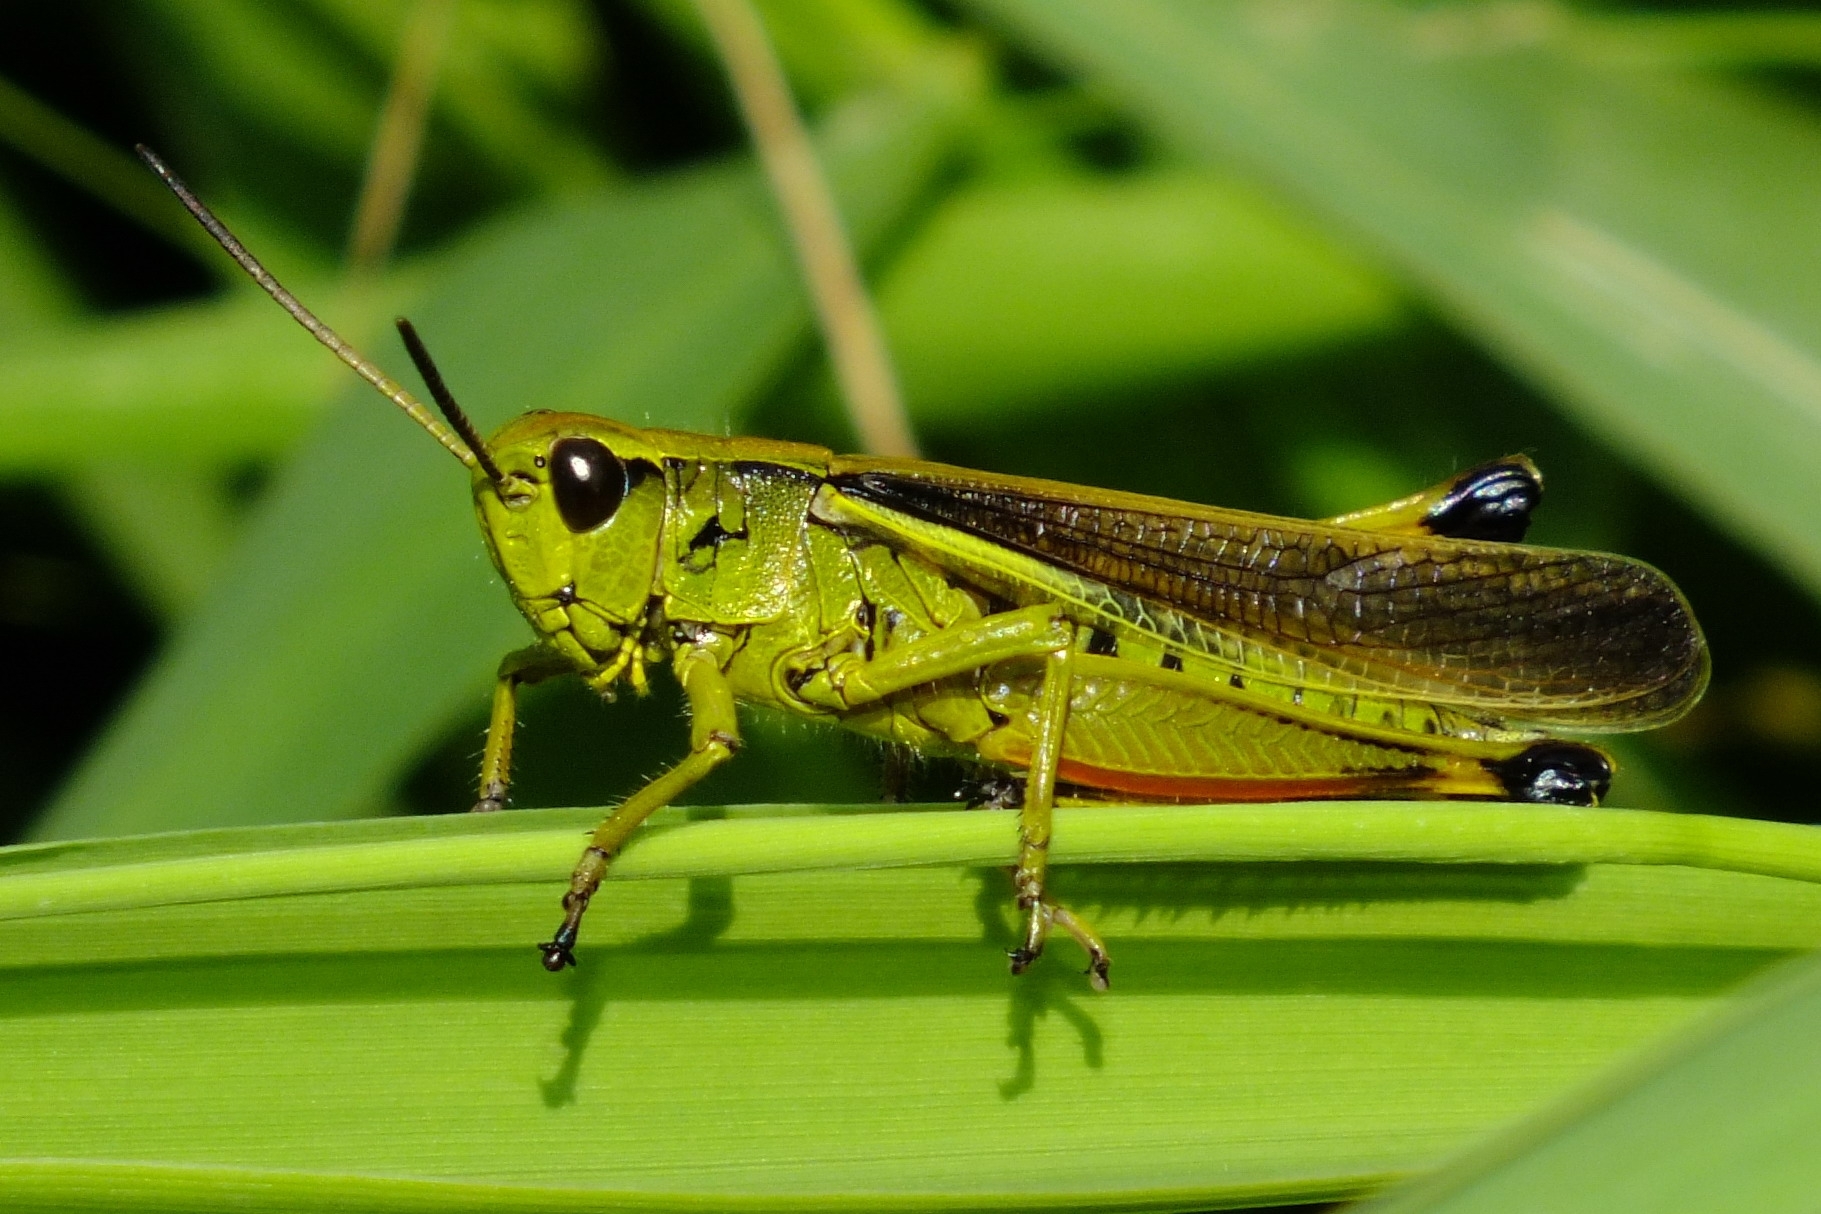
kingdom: Animalia
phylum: Arthropoda
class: Insecta
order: Orthoptera
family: Acrididae
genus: Stethophyma
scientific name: Stethophyma grossum
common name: Large marsh grasshopper
